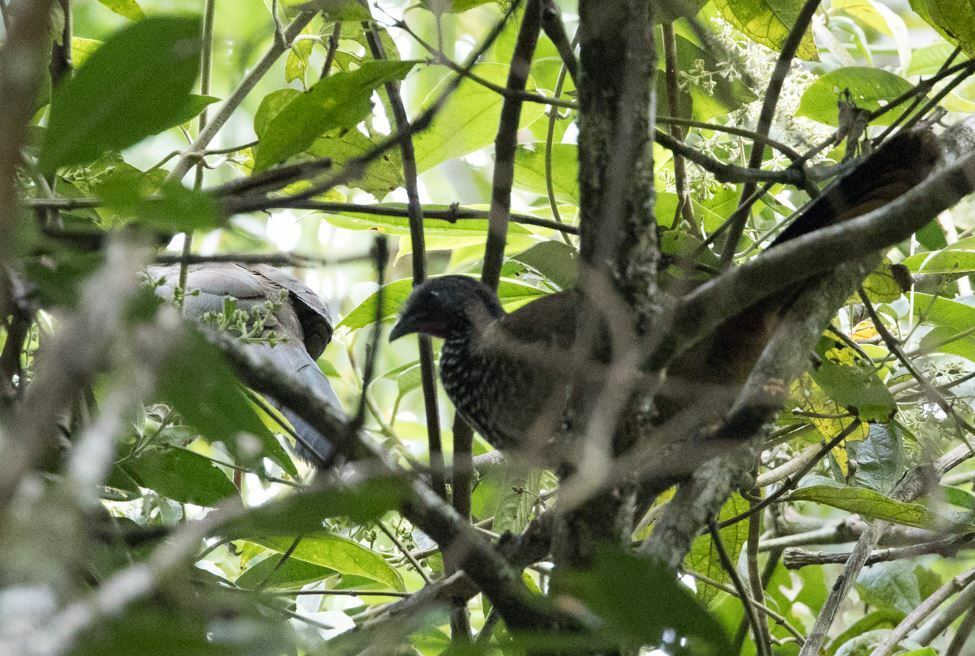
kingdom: Animalia
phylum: Chordata
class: Aves
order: Galliformes
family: Cracidae
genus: Ortalis
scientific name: Ortalis guttata
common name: Speckled chachalaca
